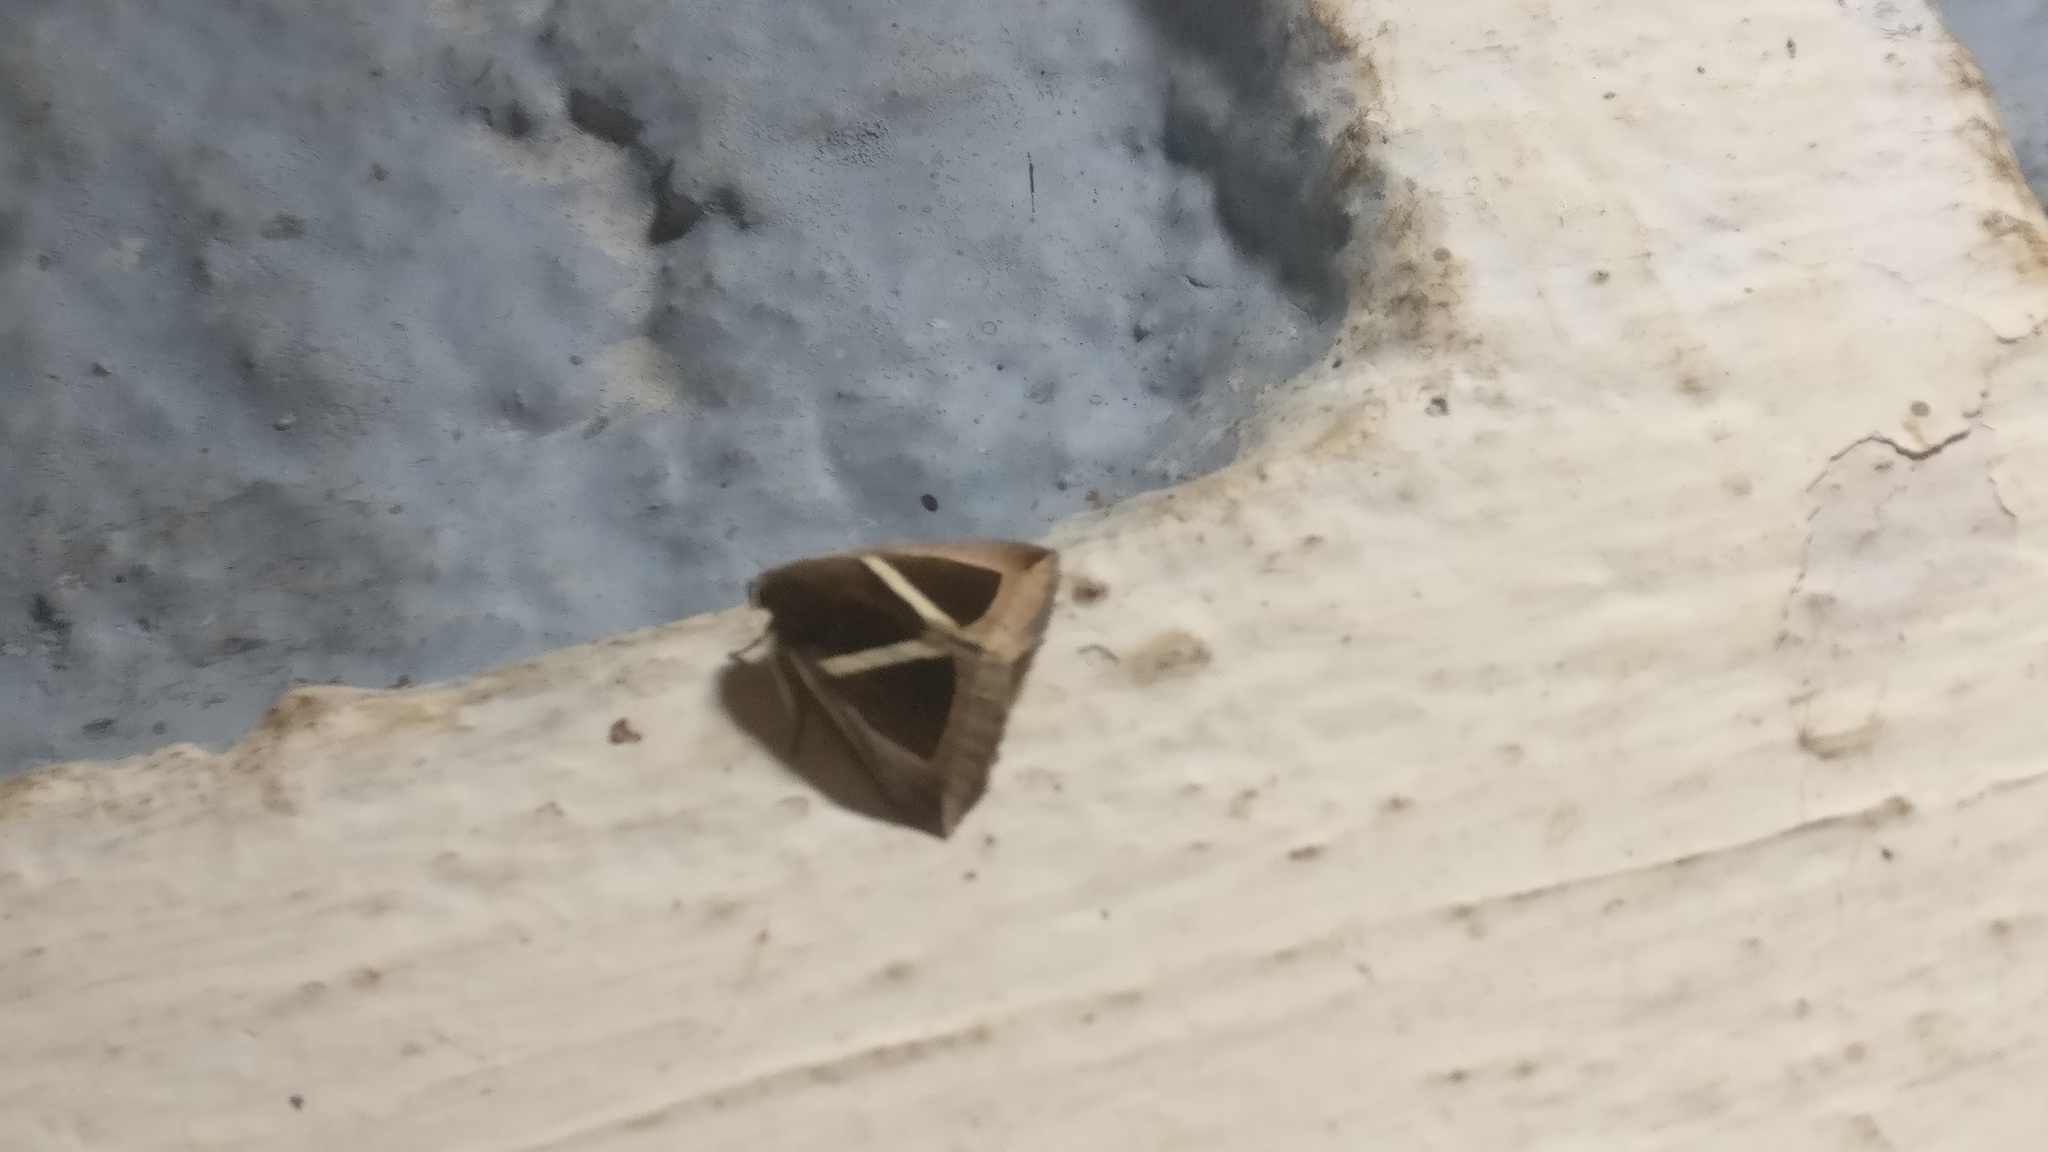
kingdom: Animalia
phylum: Arthropoda
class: Insecta
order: Lepidoptera
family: Erebidae
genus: Chalciope
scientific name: Chalciope mygdon
